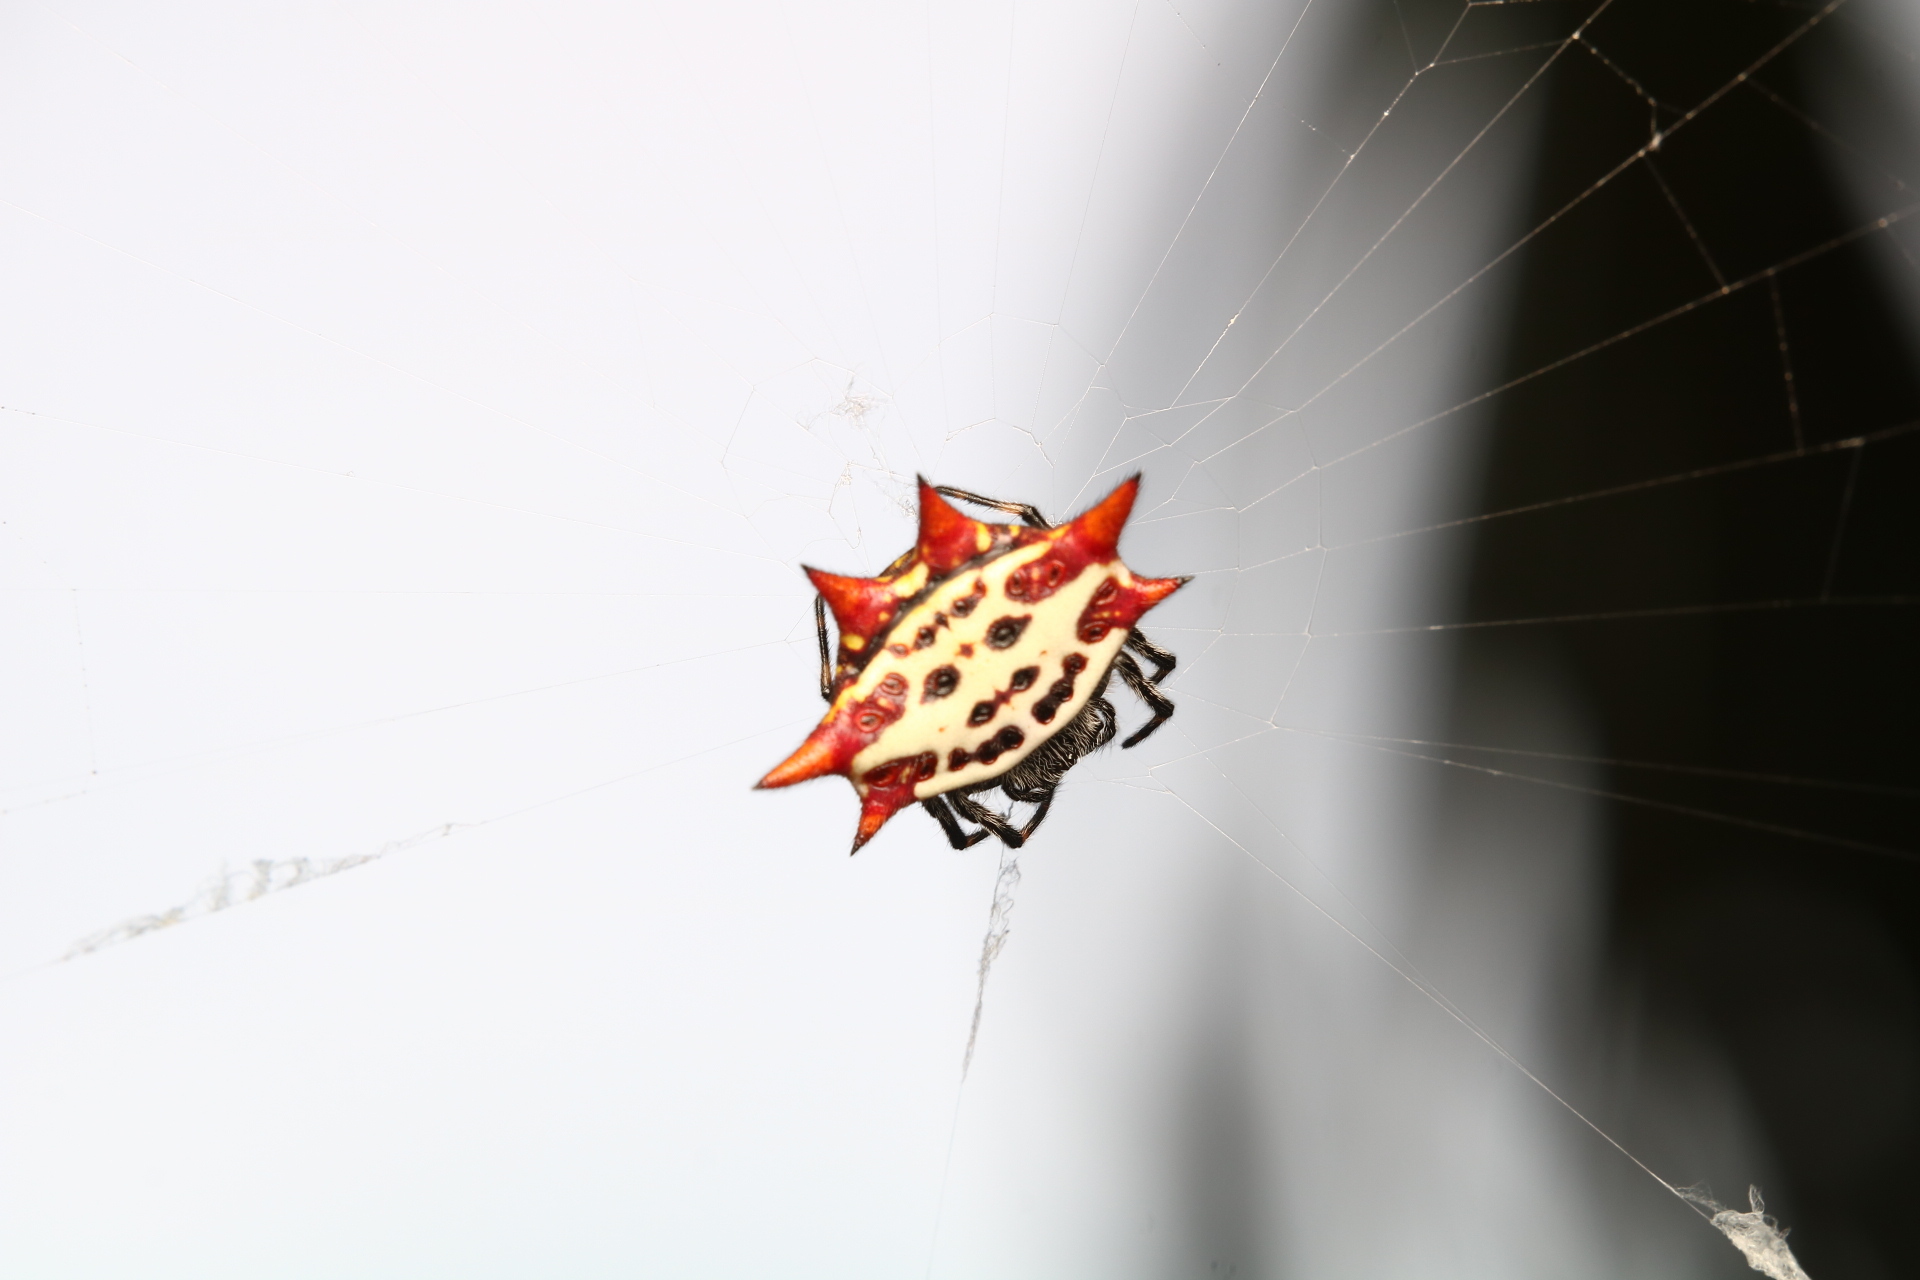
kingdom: Animalia
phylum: Arthropoda
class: Arachnida
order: Araneae
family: Araneidae
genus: Gasteracantha
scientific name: Gasteracantha cancriformis
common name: Orb weavers
